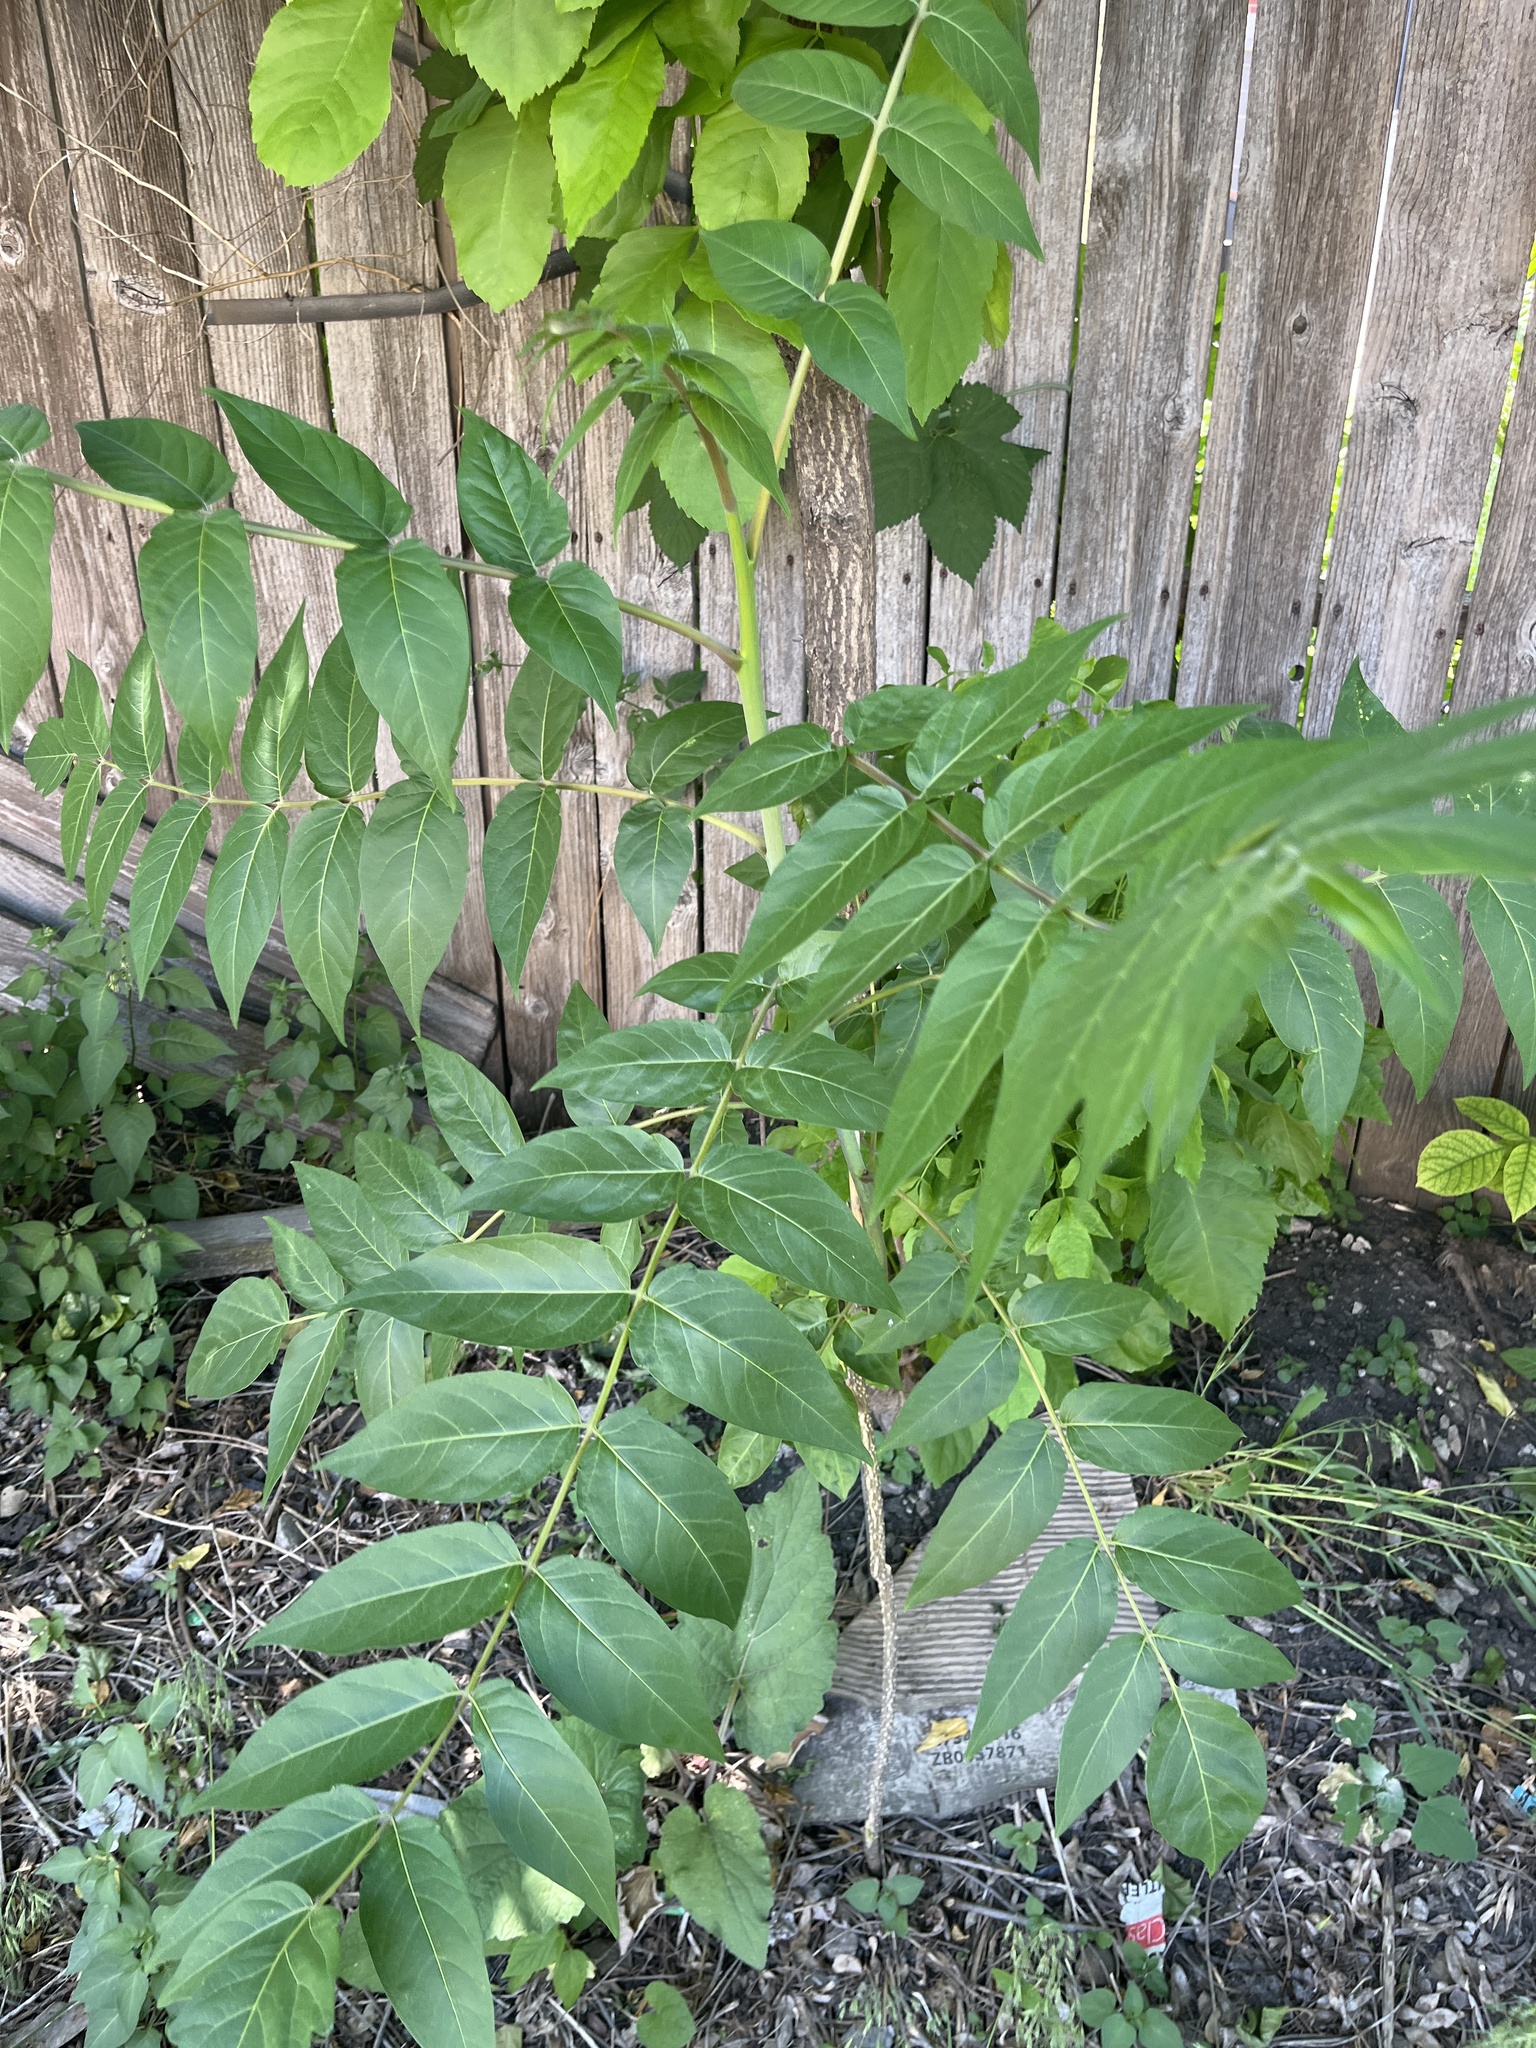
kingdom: Plantae
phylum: Tracheophyta
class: Magnoliopsida
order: Sapindales
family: Simaroubaceae
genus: Ailanthus
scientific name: Ailanthus altissima
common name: Tree-of-heaven
